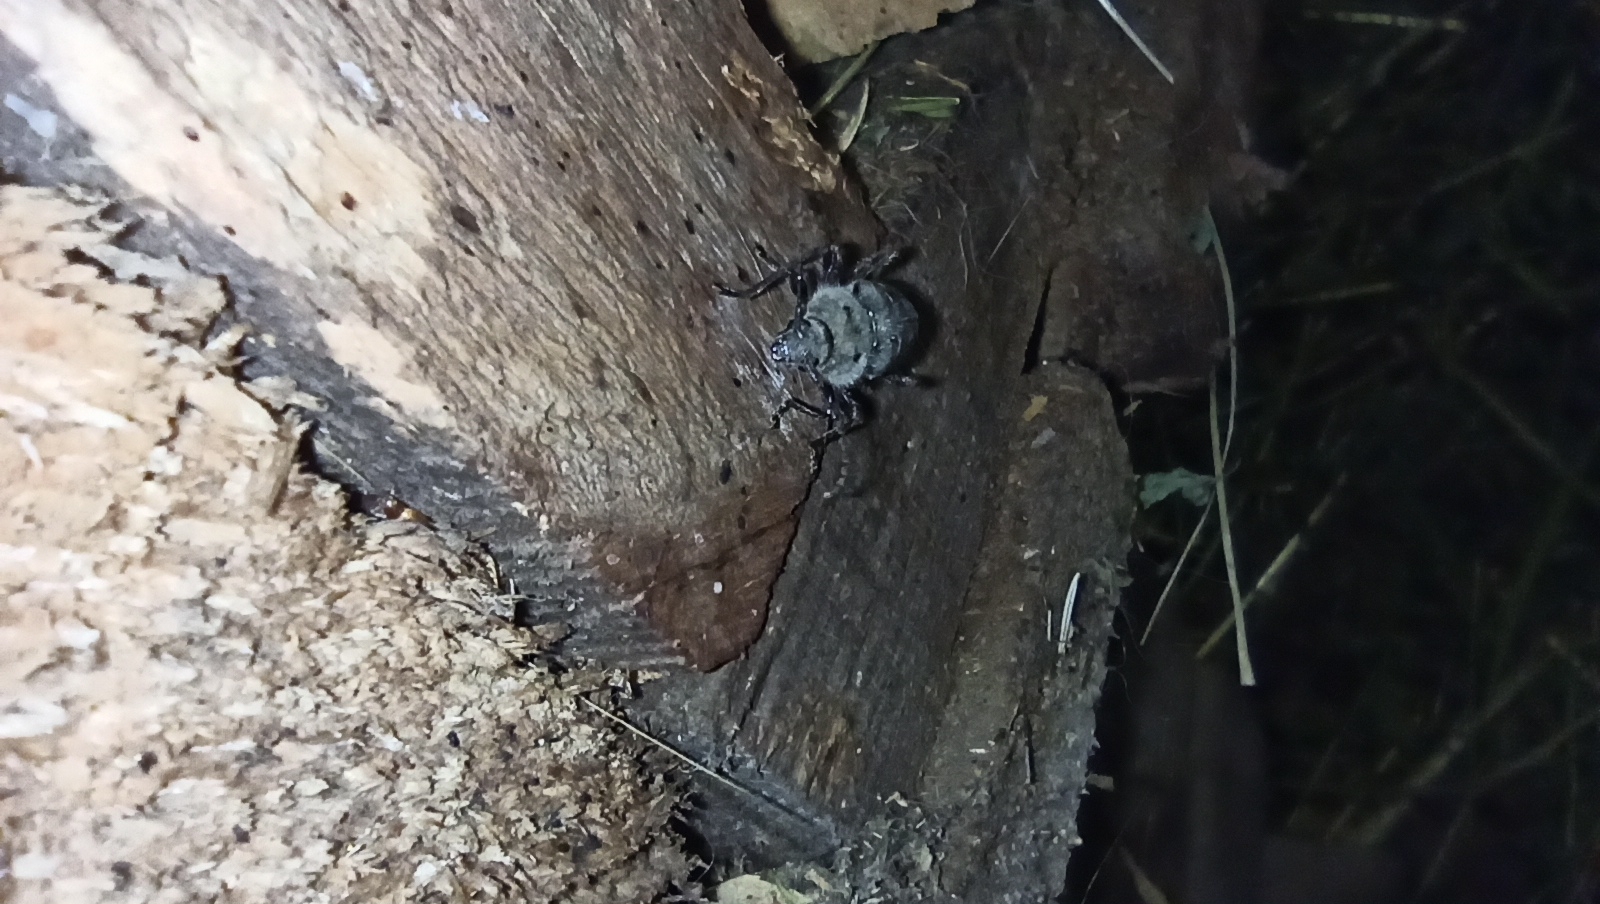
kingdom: Animalia
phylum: Arthropoda
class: Insecta
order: Coleoptera
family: Cerambycidae
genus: Hylotrupes
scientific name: Hylotrupes bajulus
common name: Old house borer
